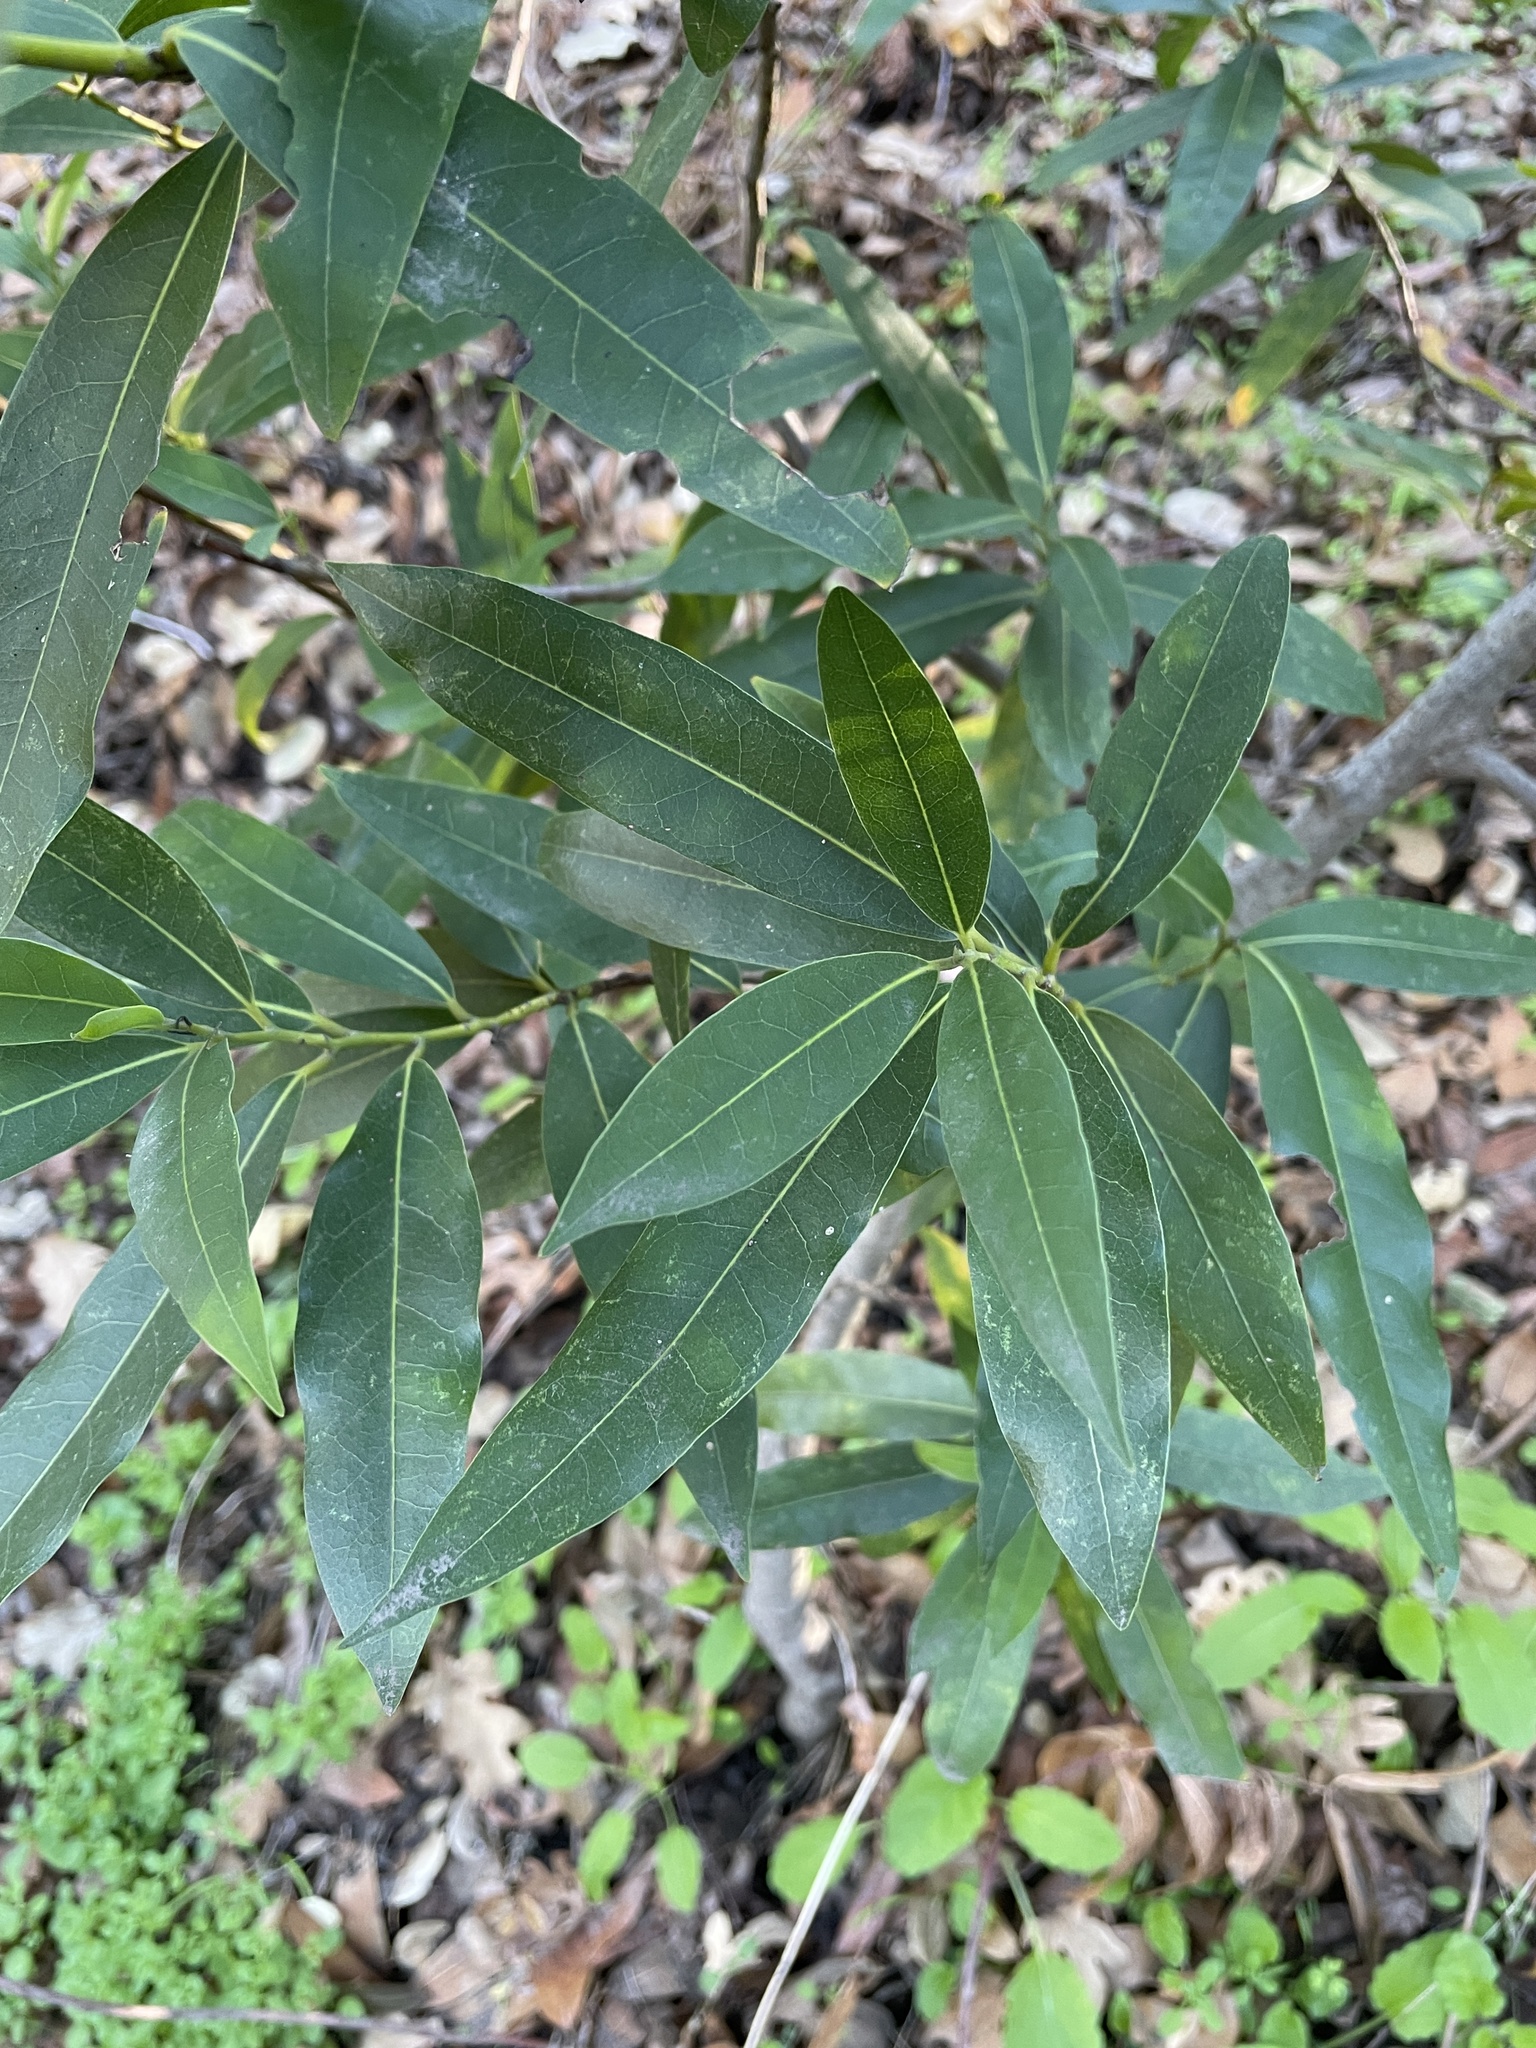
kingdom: Plantae
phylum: Tracheophyta
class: Magnoliopsida
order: Laurales
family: Lauraceae
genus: Umbellularia
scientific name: Umbellularia californica
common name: California bay
